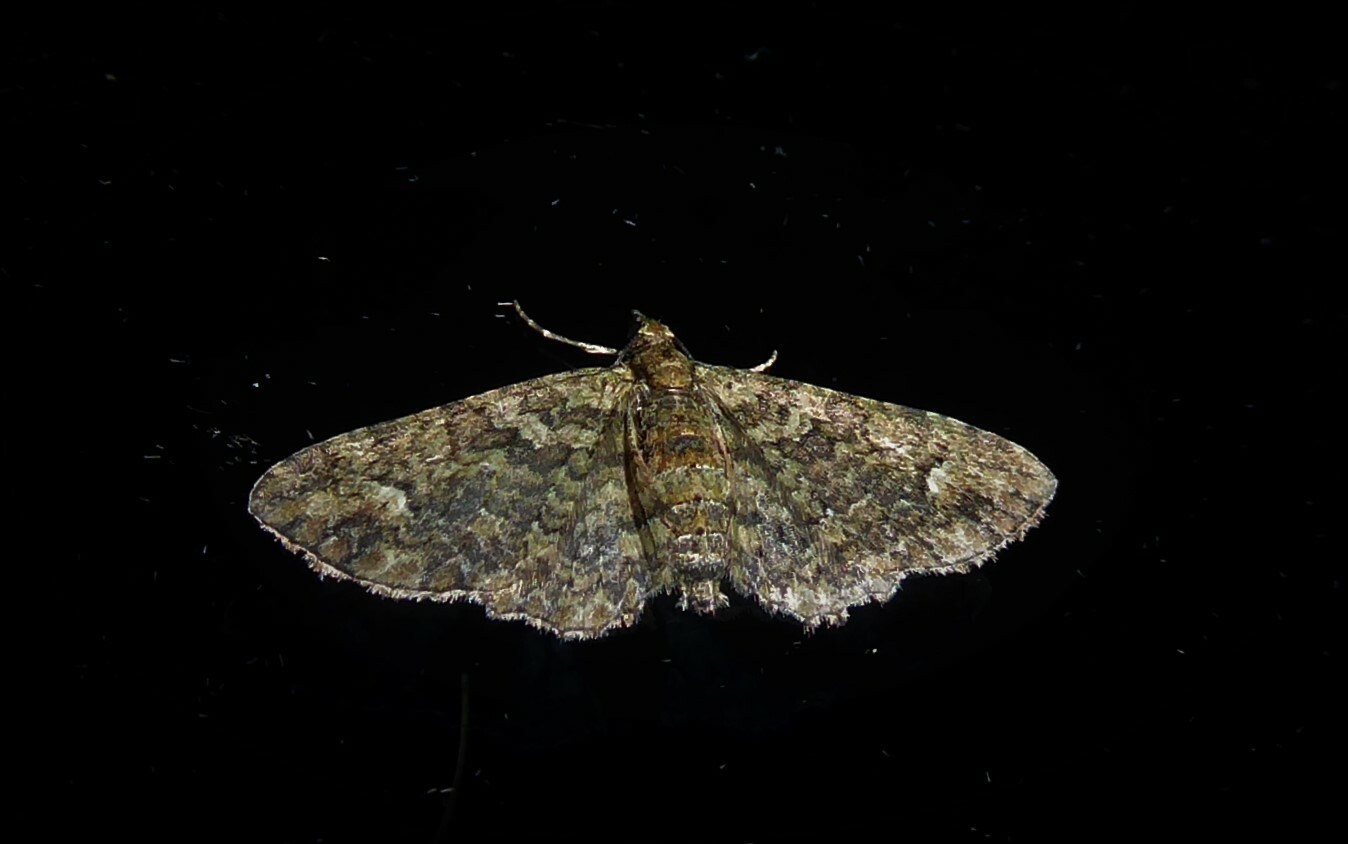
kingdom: Animalia
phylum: Arthropoda
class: Insecta
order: Lepidoptera
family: Geometridae
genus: Pasiphilodes
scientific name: Pasiphilodes testulata
